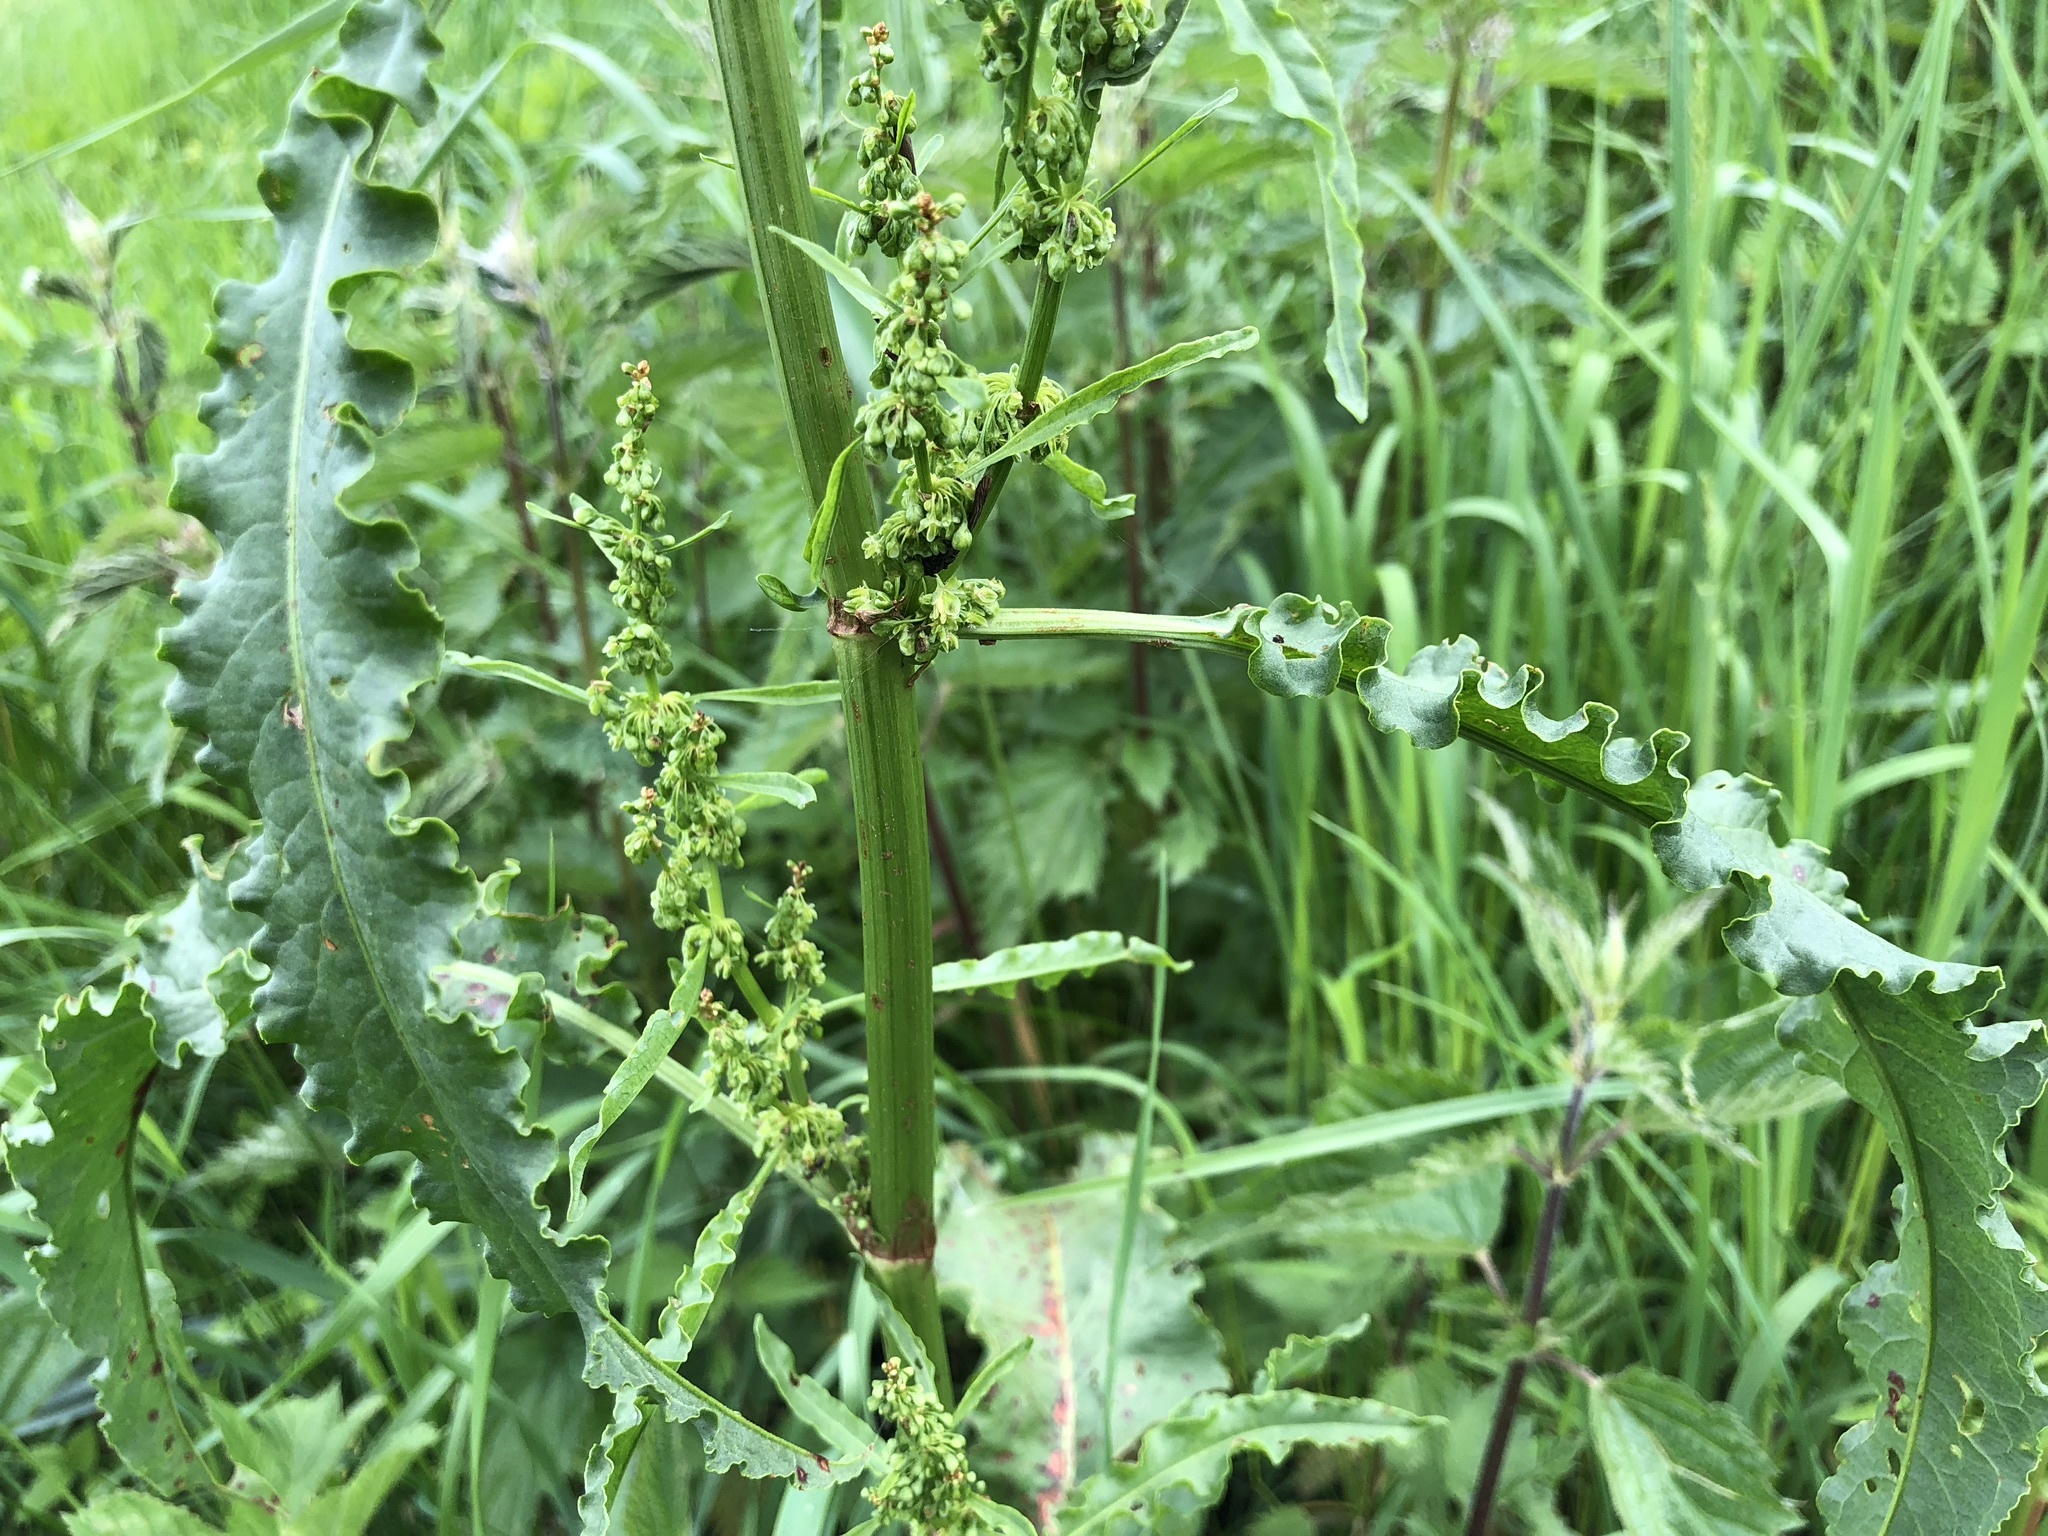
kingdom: Plantae
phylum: Tracheophyta
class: Magnoliopsida
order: Caryophyllales
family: Polygonaceae
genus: Rumex
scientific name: Rumex crispus
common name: Curled dock
